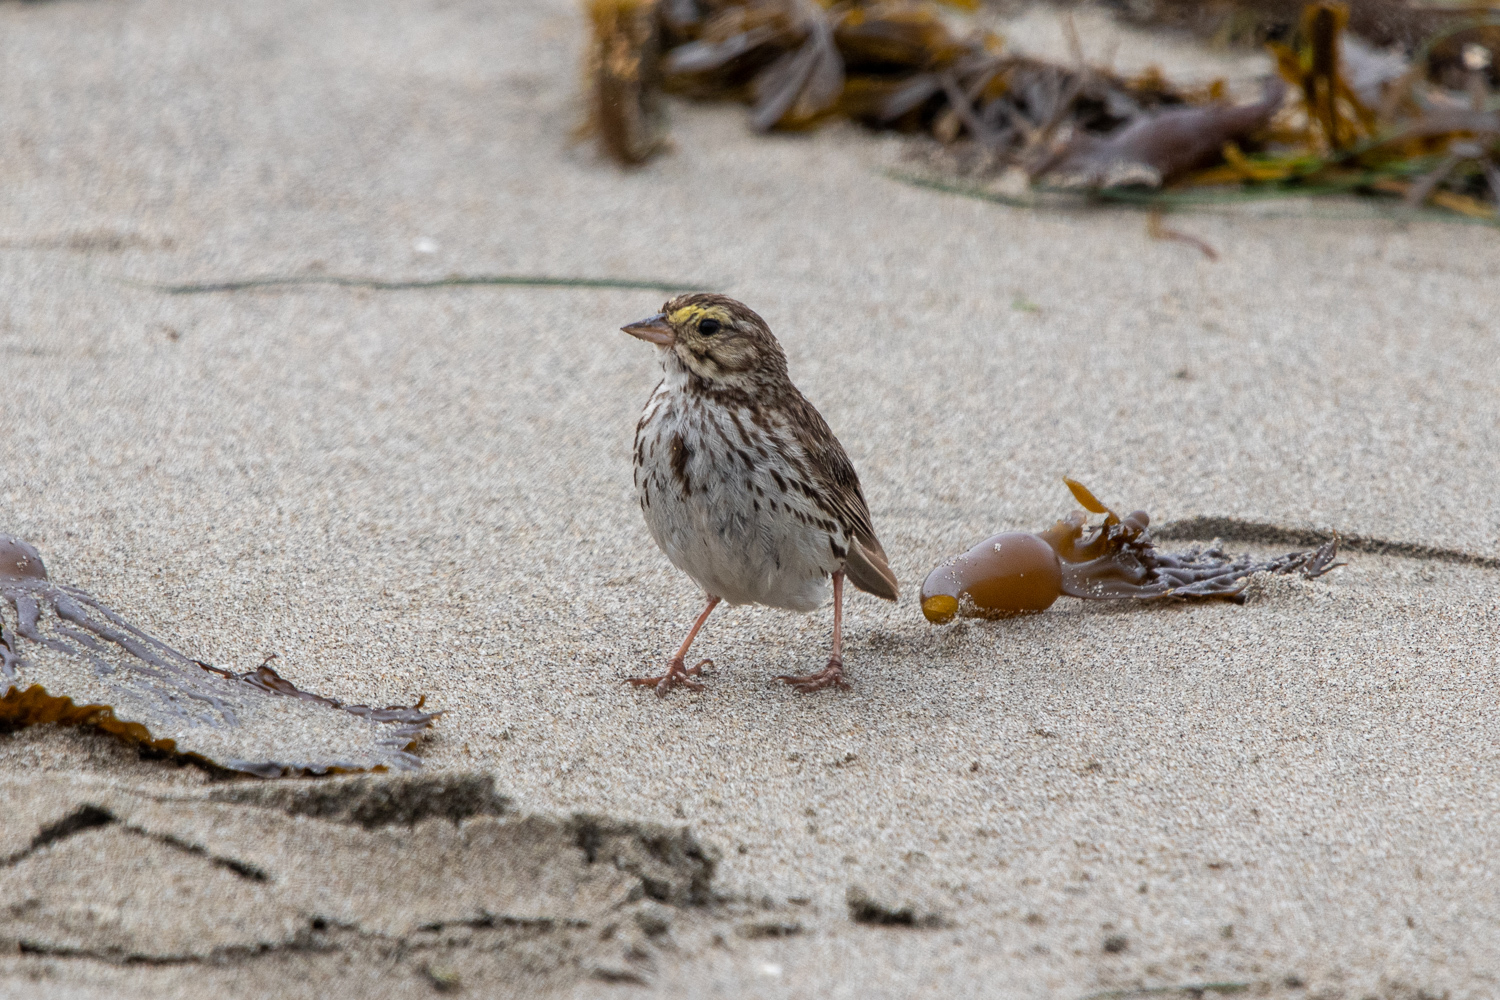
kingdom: Animalia
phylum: Chordata
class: Aves
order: Passeriformes
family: Passerellidae
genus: Passerculus
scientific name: Passerculus sandwichensis
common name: Savannah sparrow
